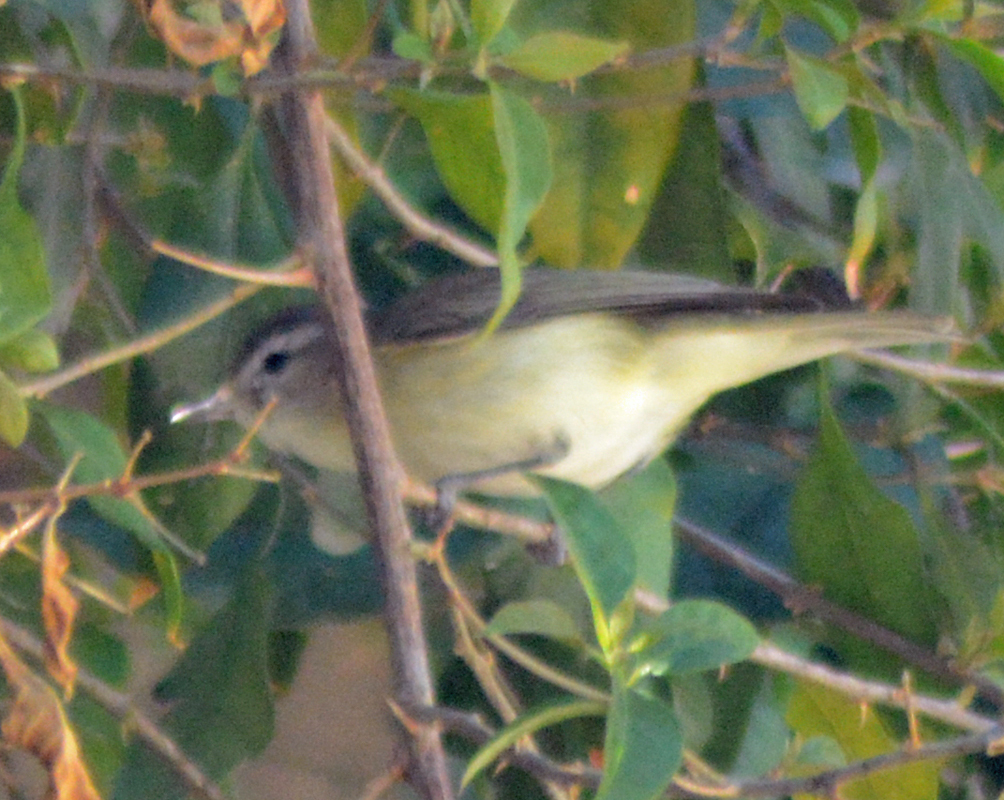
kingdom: Animalia
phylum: Chordata
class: Aves
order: Passeriformes
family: Vireonidae
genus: Vireo
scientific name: Vireo gilvus
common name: Warbling vireo
